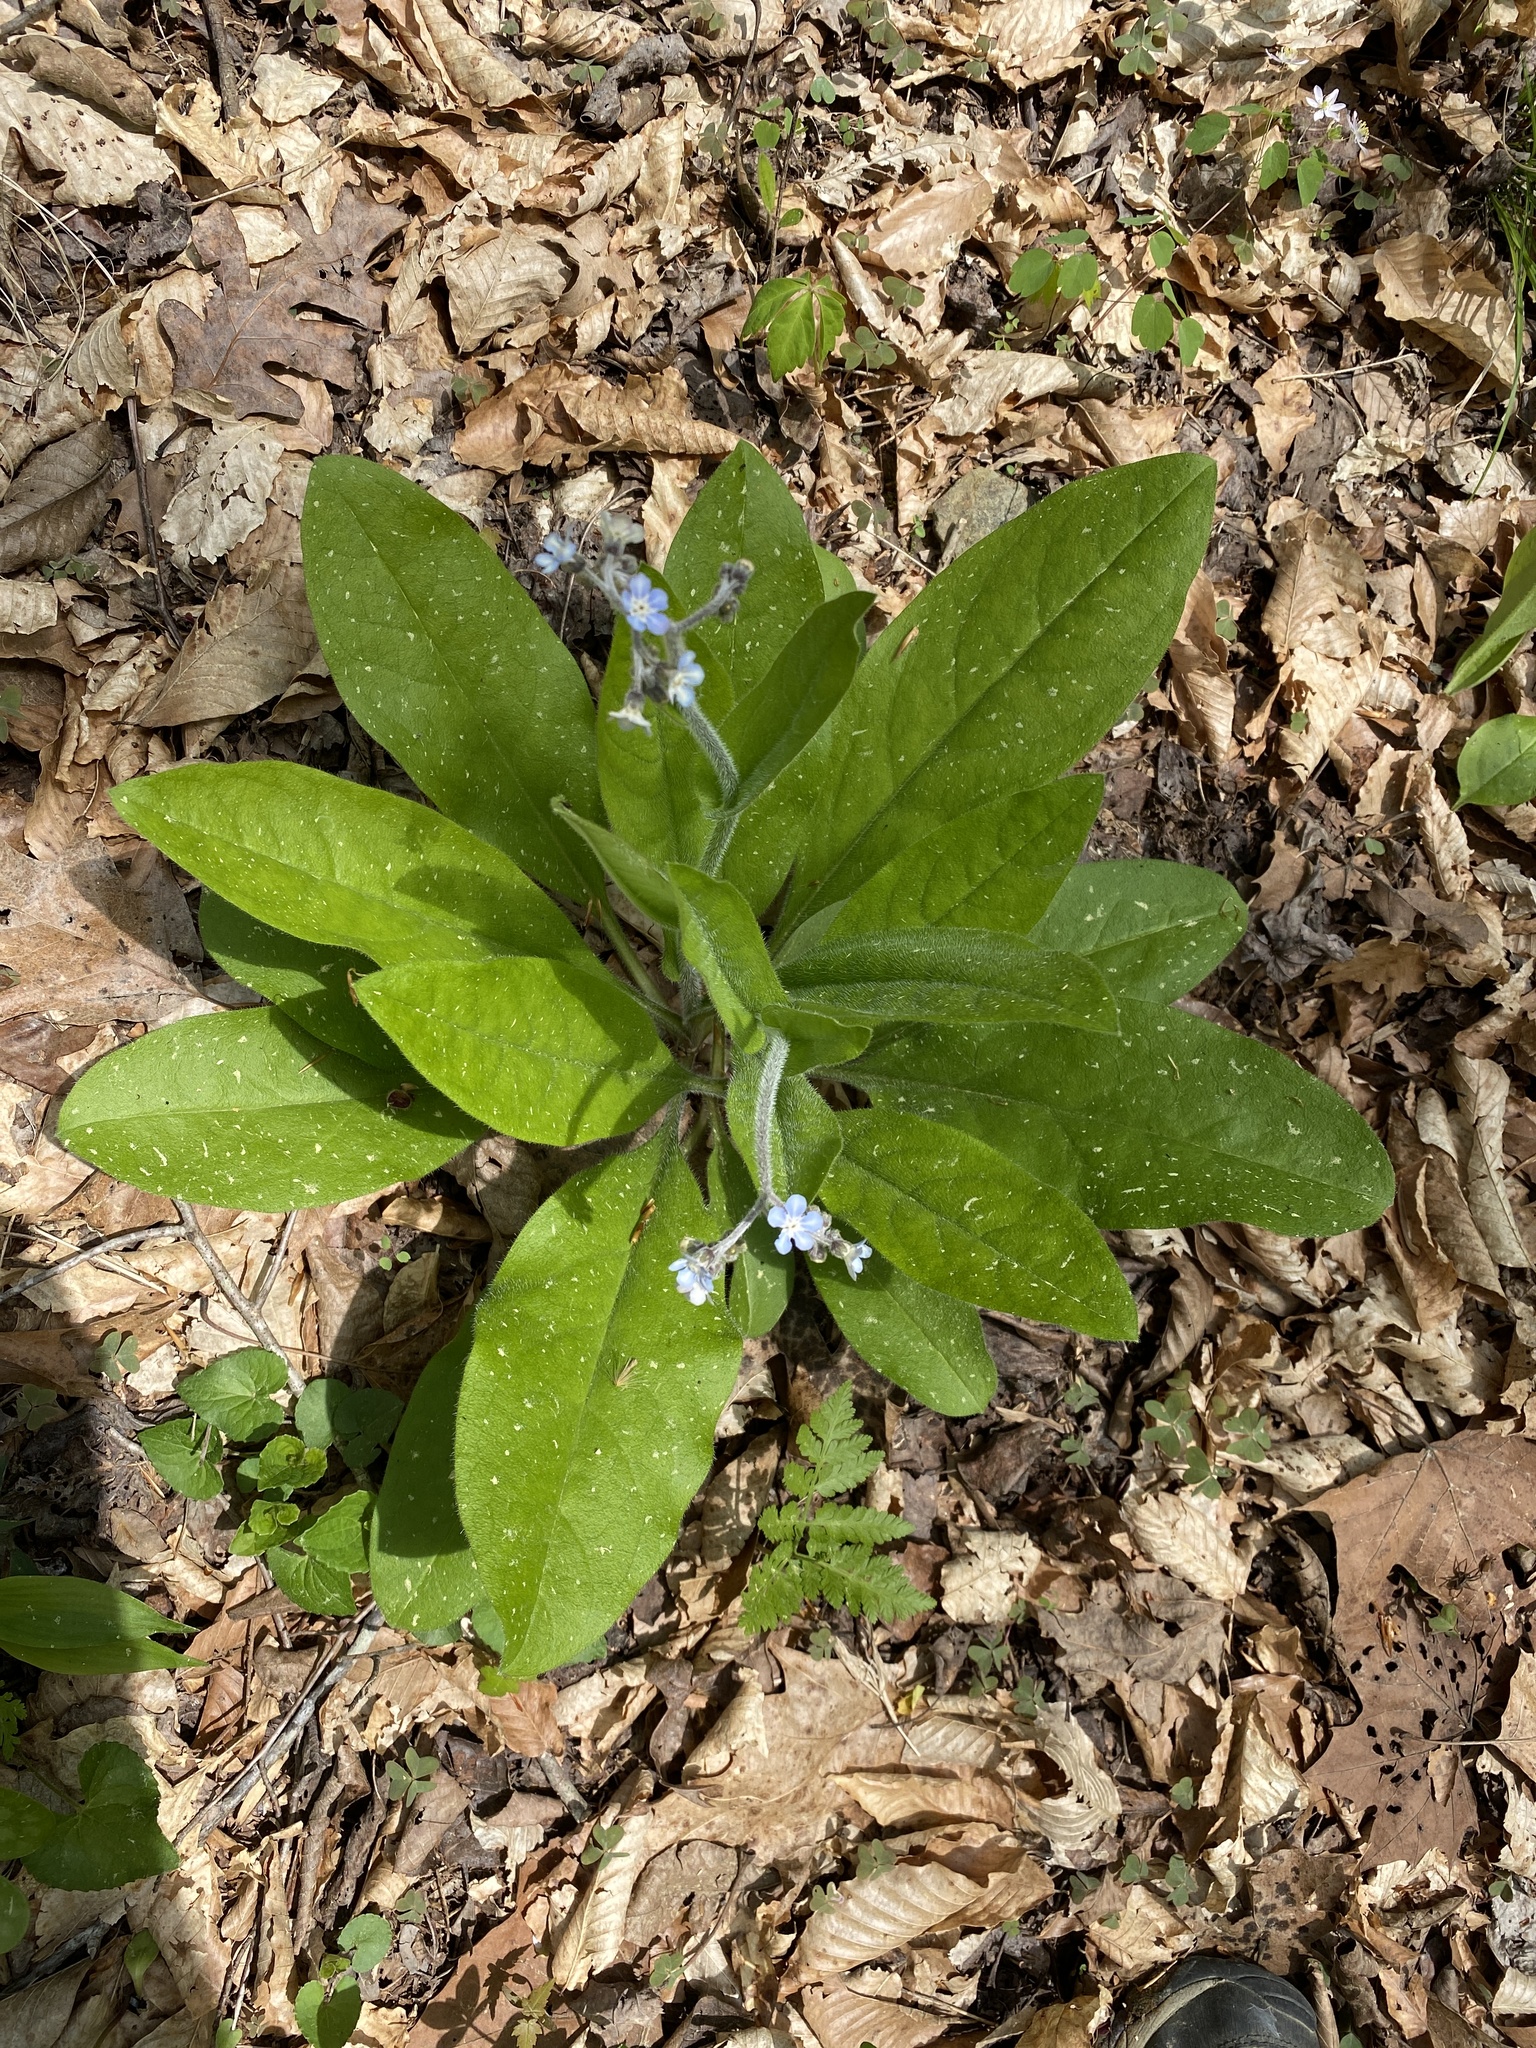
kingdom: Plantae
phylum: Tracheophyta
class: Magnoliopsida
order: Boraginales
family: Boraginaceae
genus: Andersonglossum
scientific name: Andersonglossum virginianum
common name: Wild comfrey
